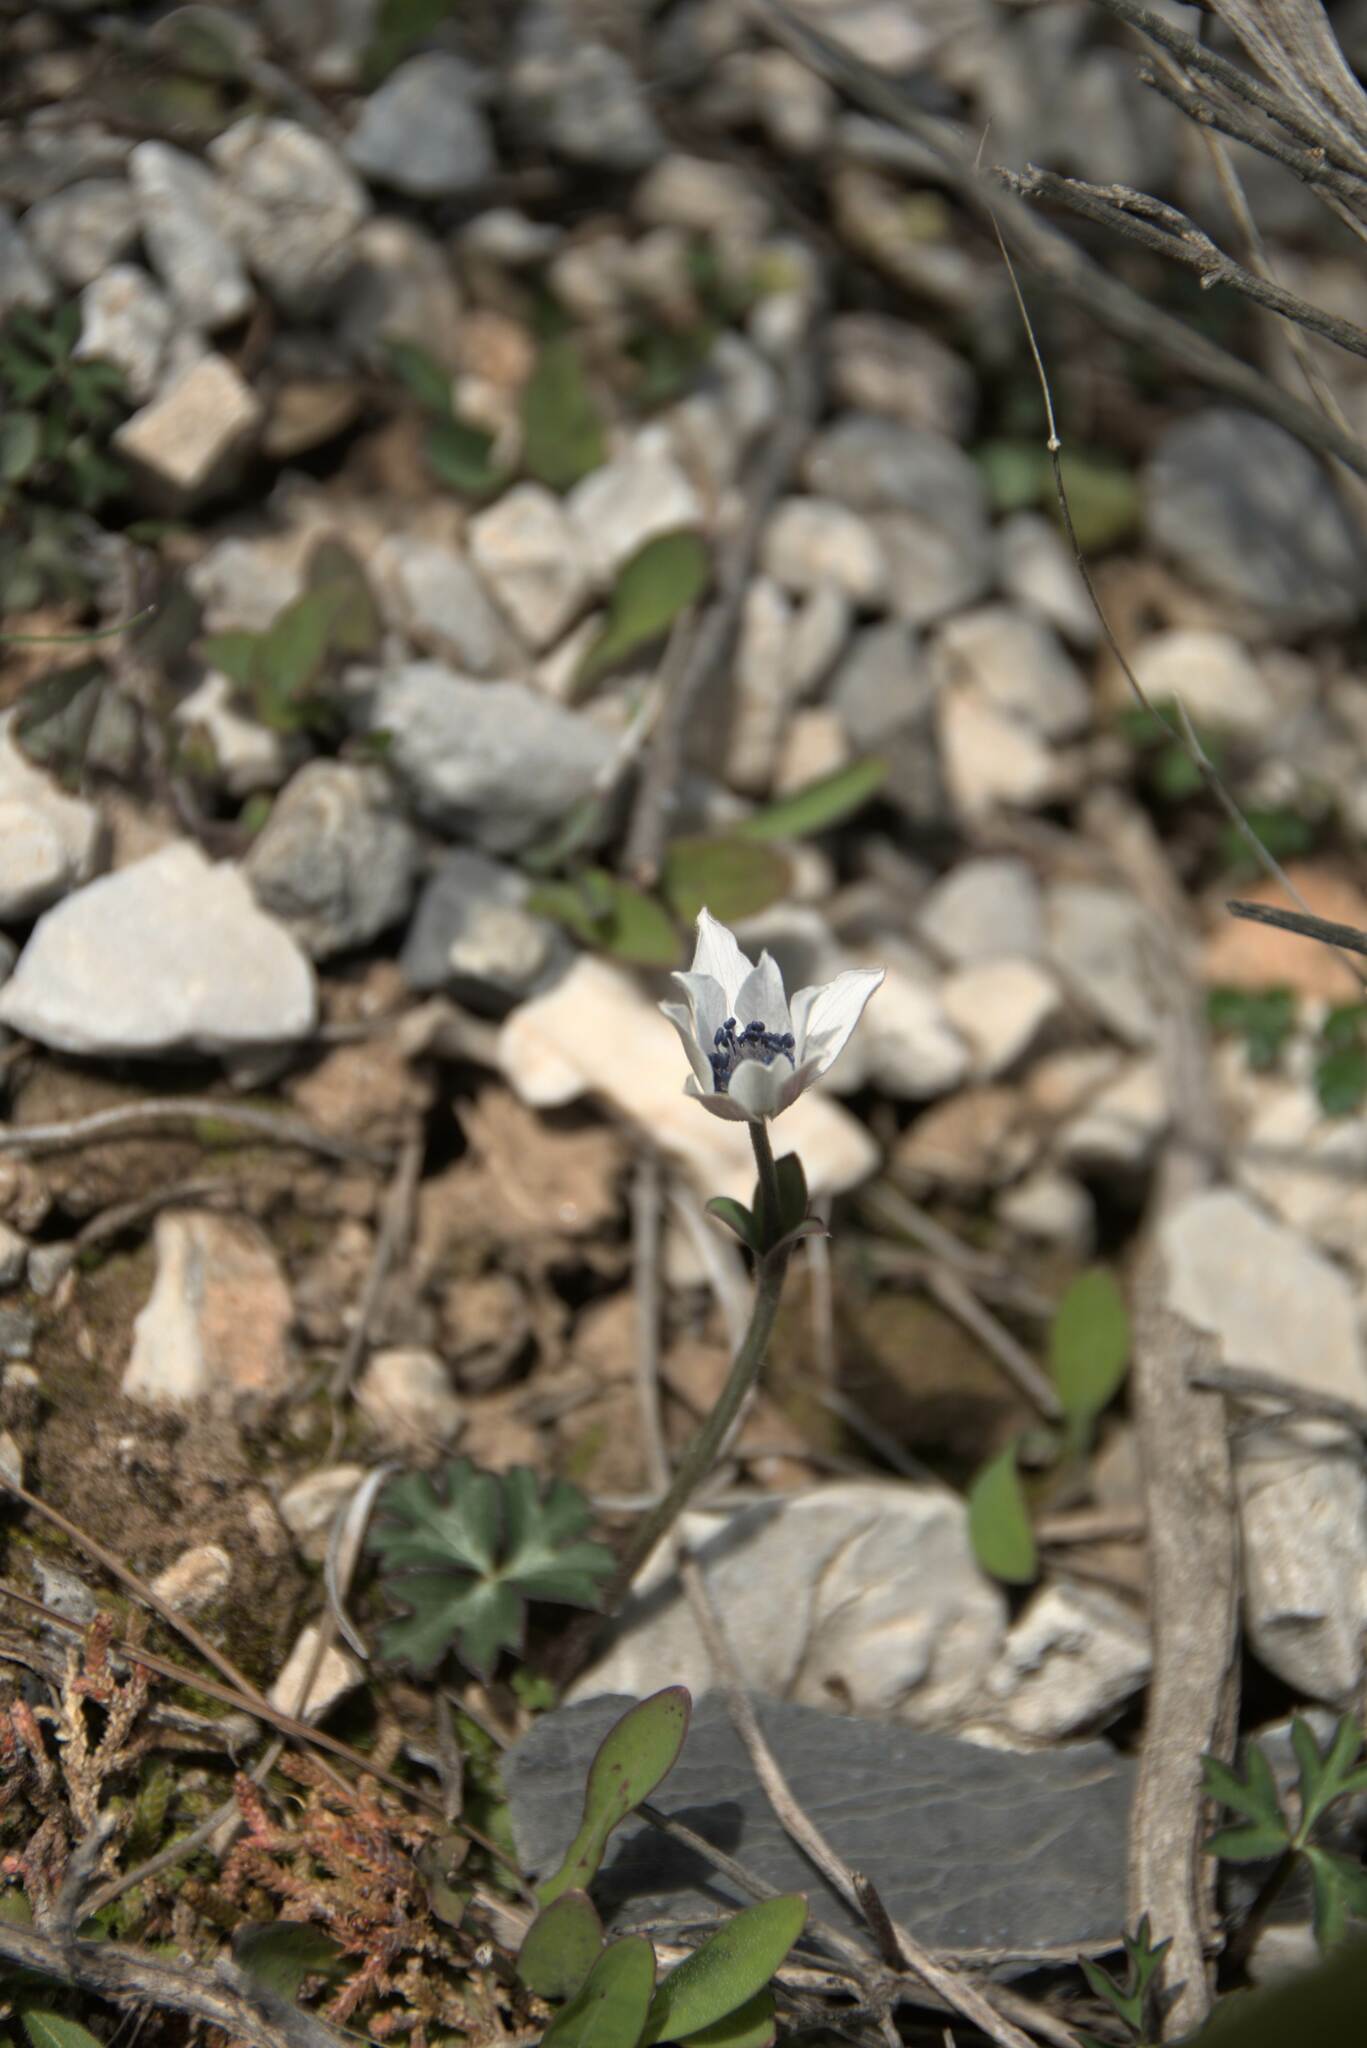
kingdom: Plantae
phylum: Tracheophyta
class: Magnoliopsida
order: Ranunculales
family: Ranunculaceae
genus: Anemone
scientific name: Anemone hortensis
